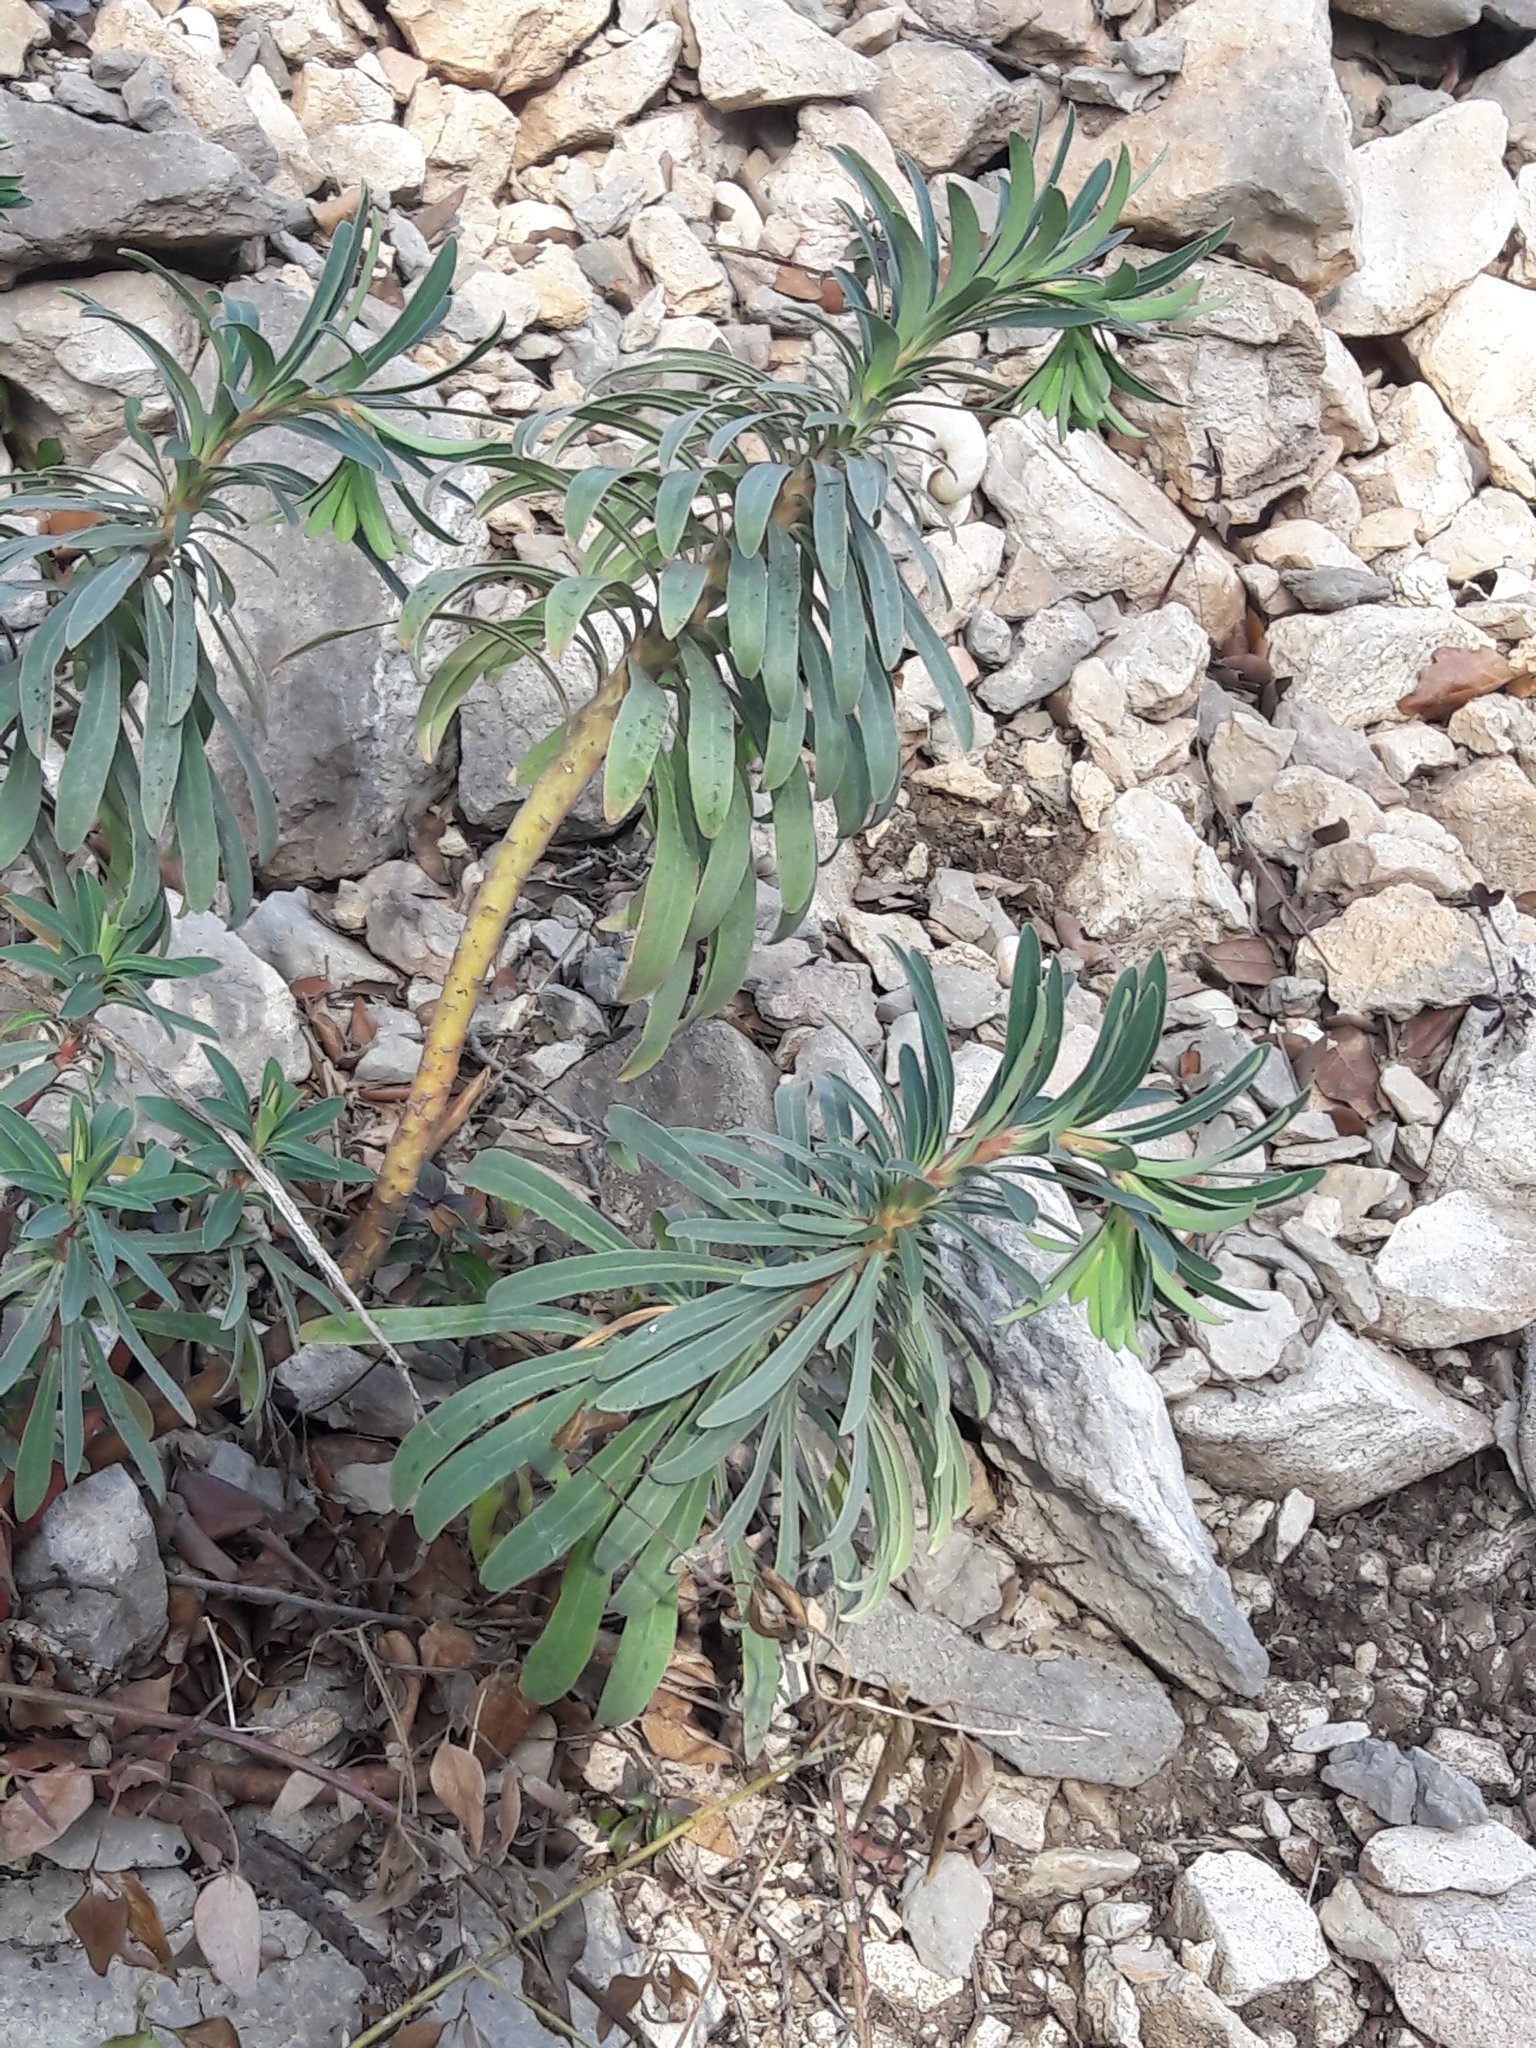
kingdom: Plantae
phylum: Tracheophyta
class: Magnoliopsida
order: Malpighiales
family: Euphorbiaceae
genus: Euphorbia
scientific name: Euphorbia characias
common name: Mediterranean spurge
